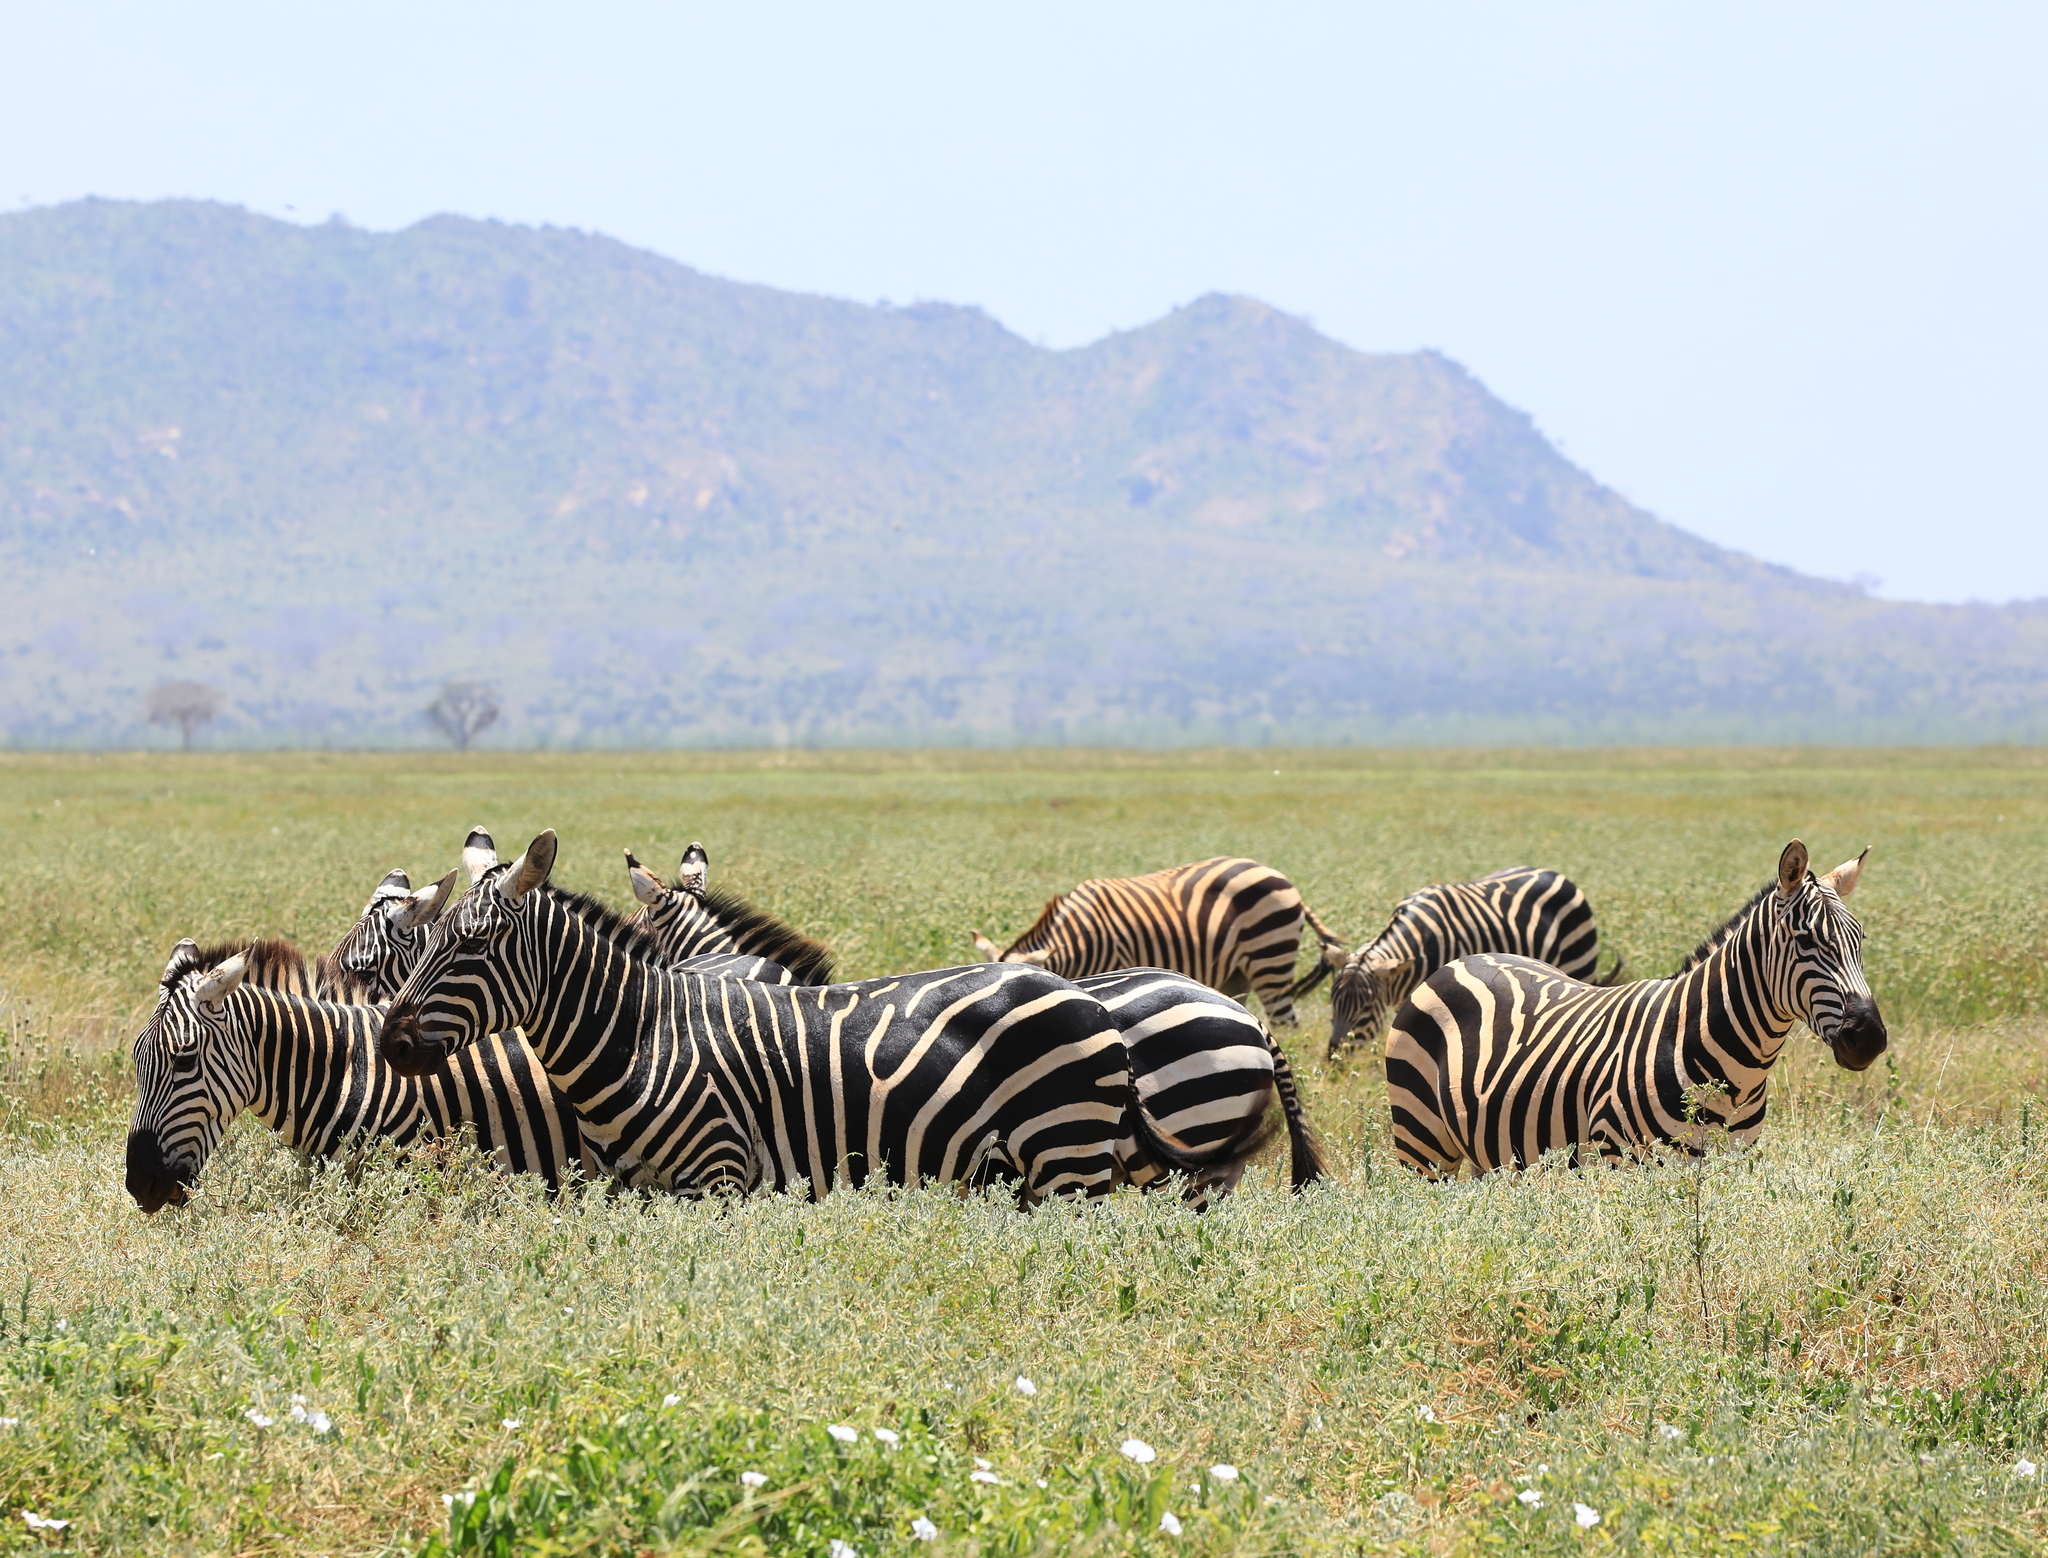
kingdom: Animalia
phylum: Chordata
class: Mammalia
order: Perissodactyla
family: Equidae
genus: Equus
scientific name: Equus quagga
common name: Plains zebra
